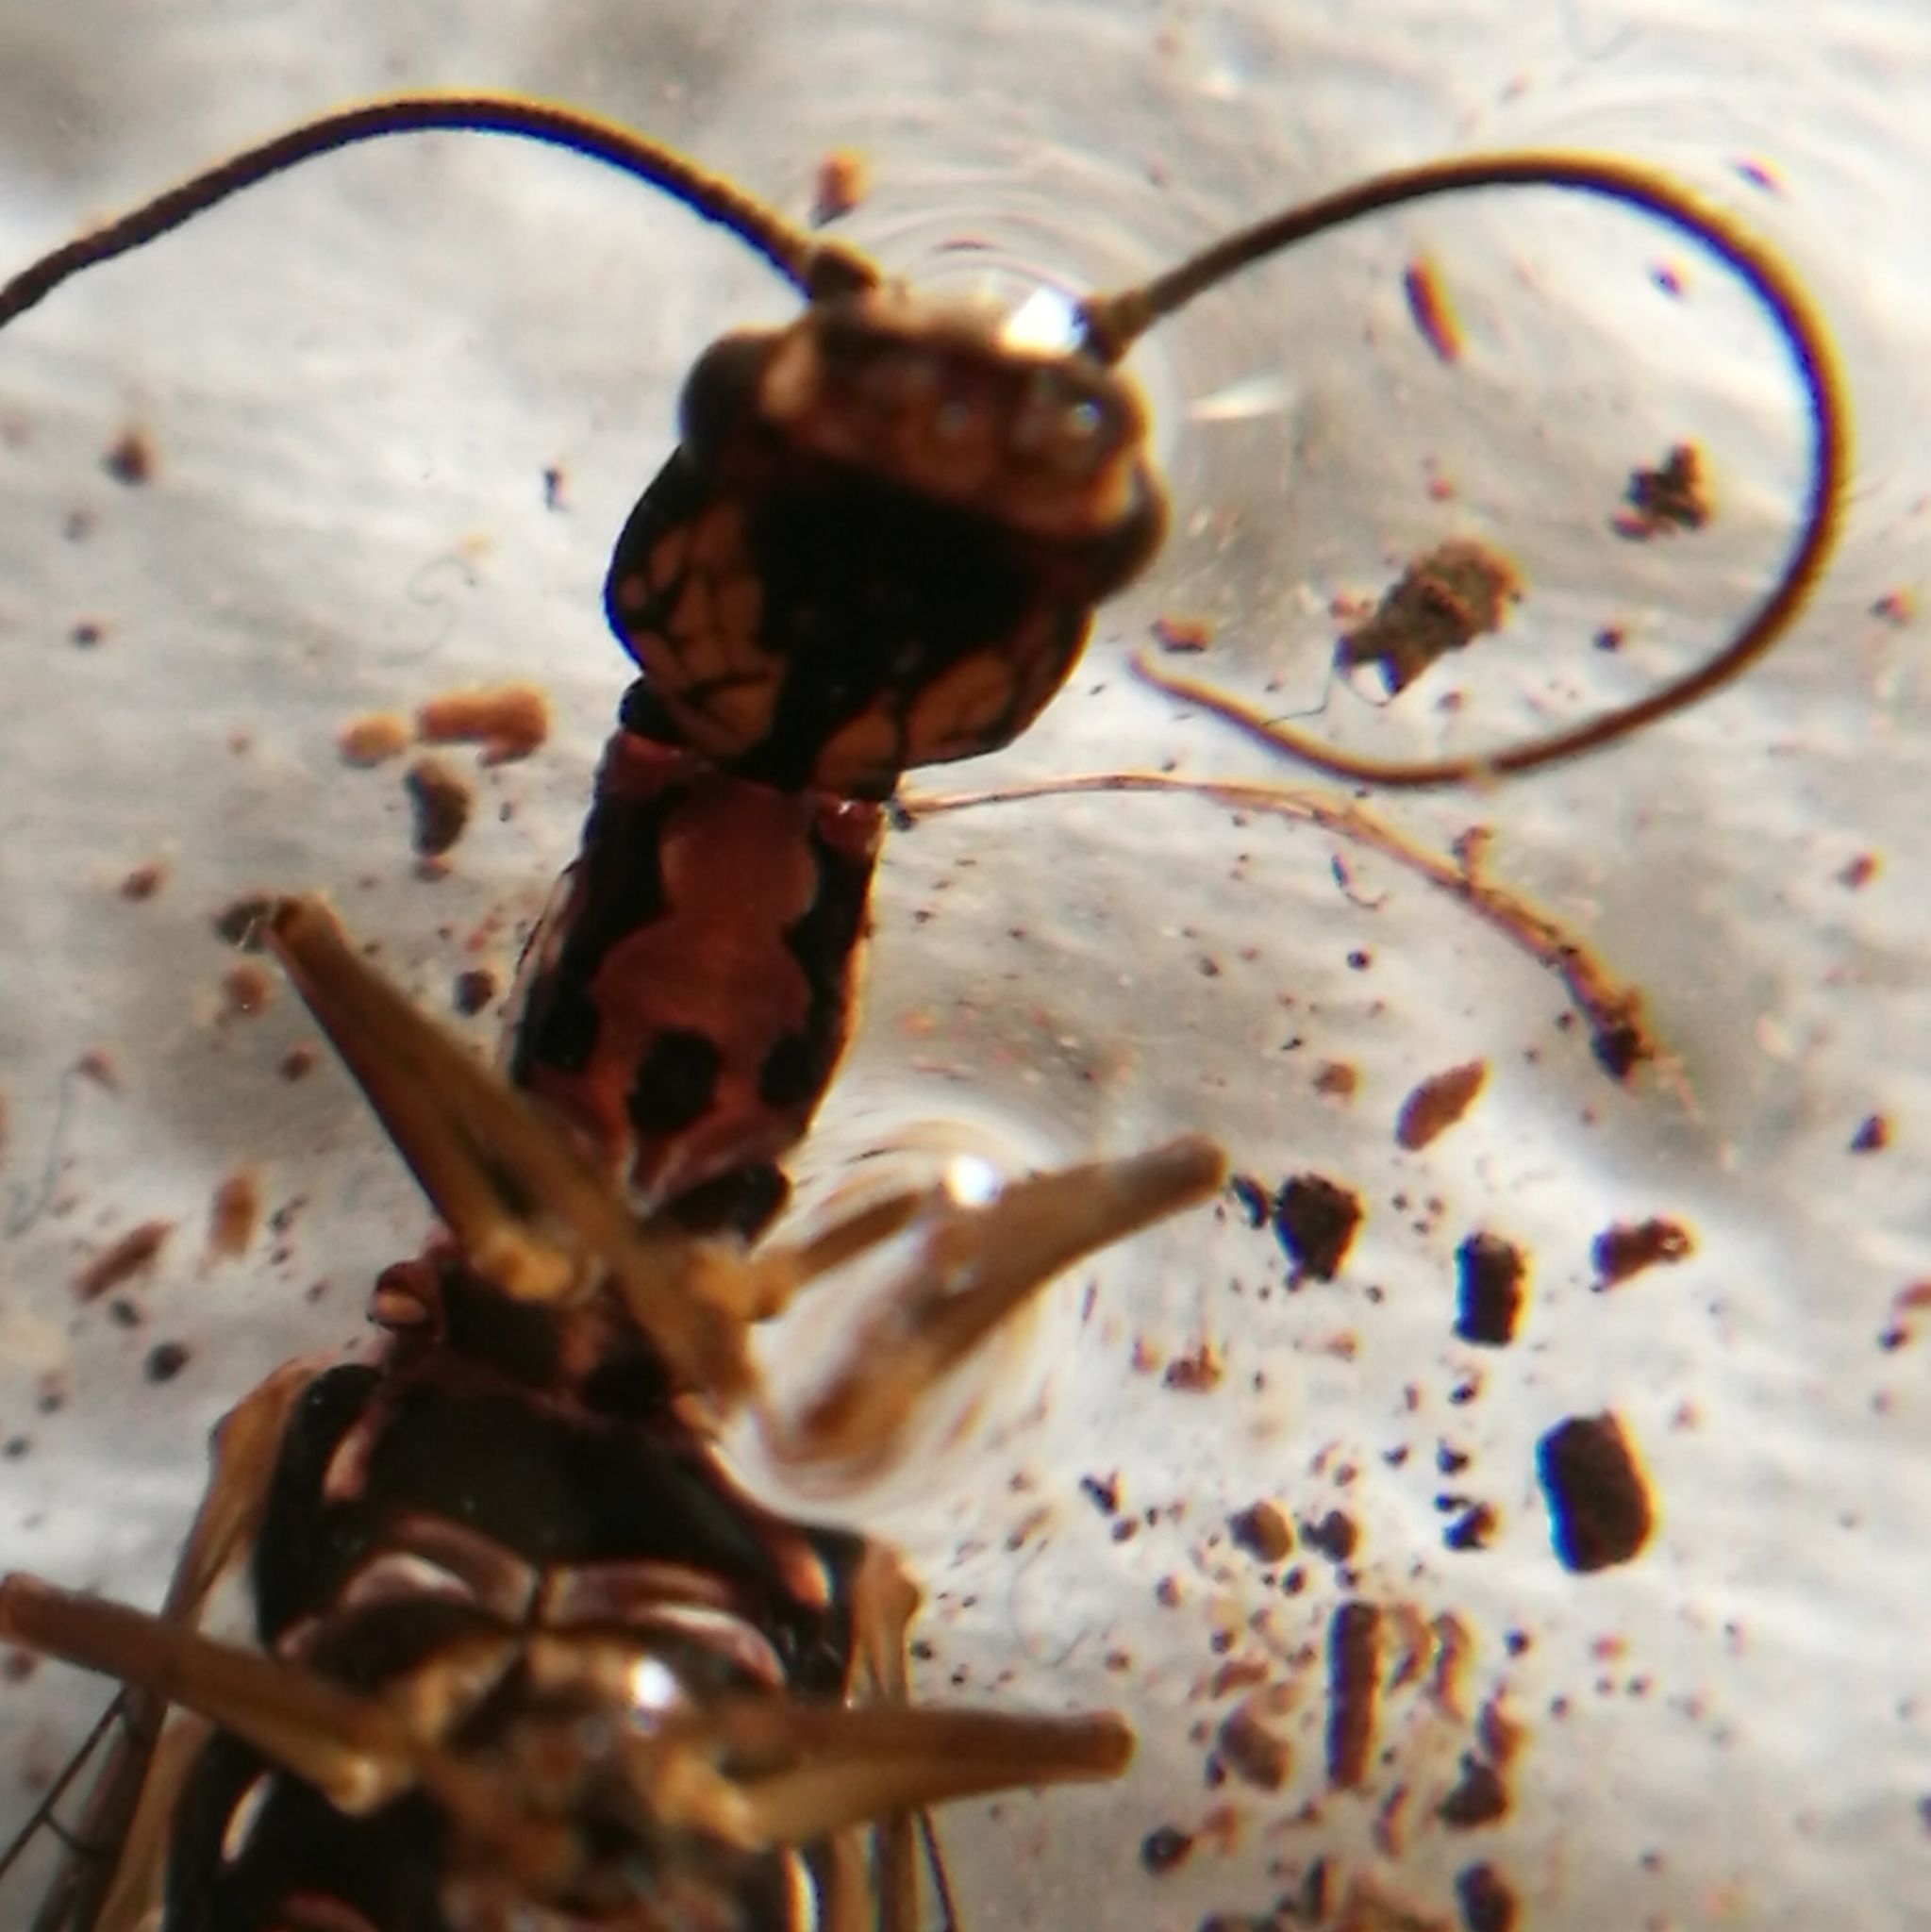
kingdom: Animalia
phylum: Arthropoda
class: Insecta
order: Raphidioptera
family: Inocelliidae
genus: Fibla
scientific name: Fibla maclachlani
